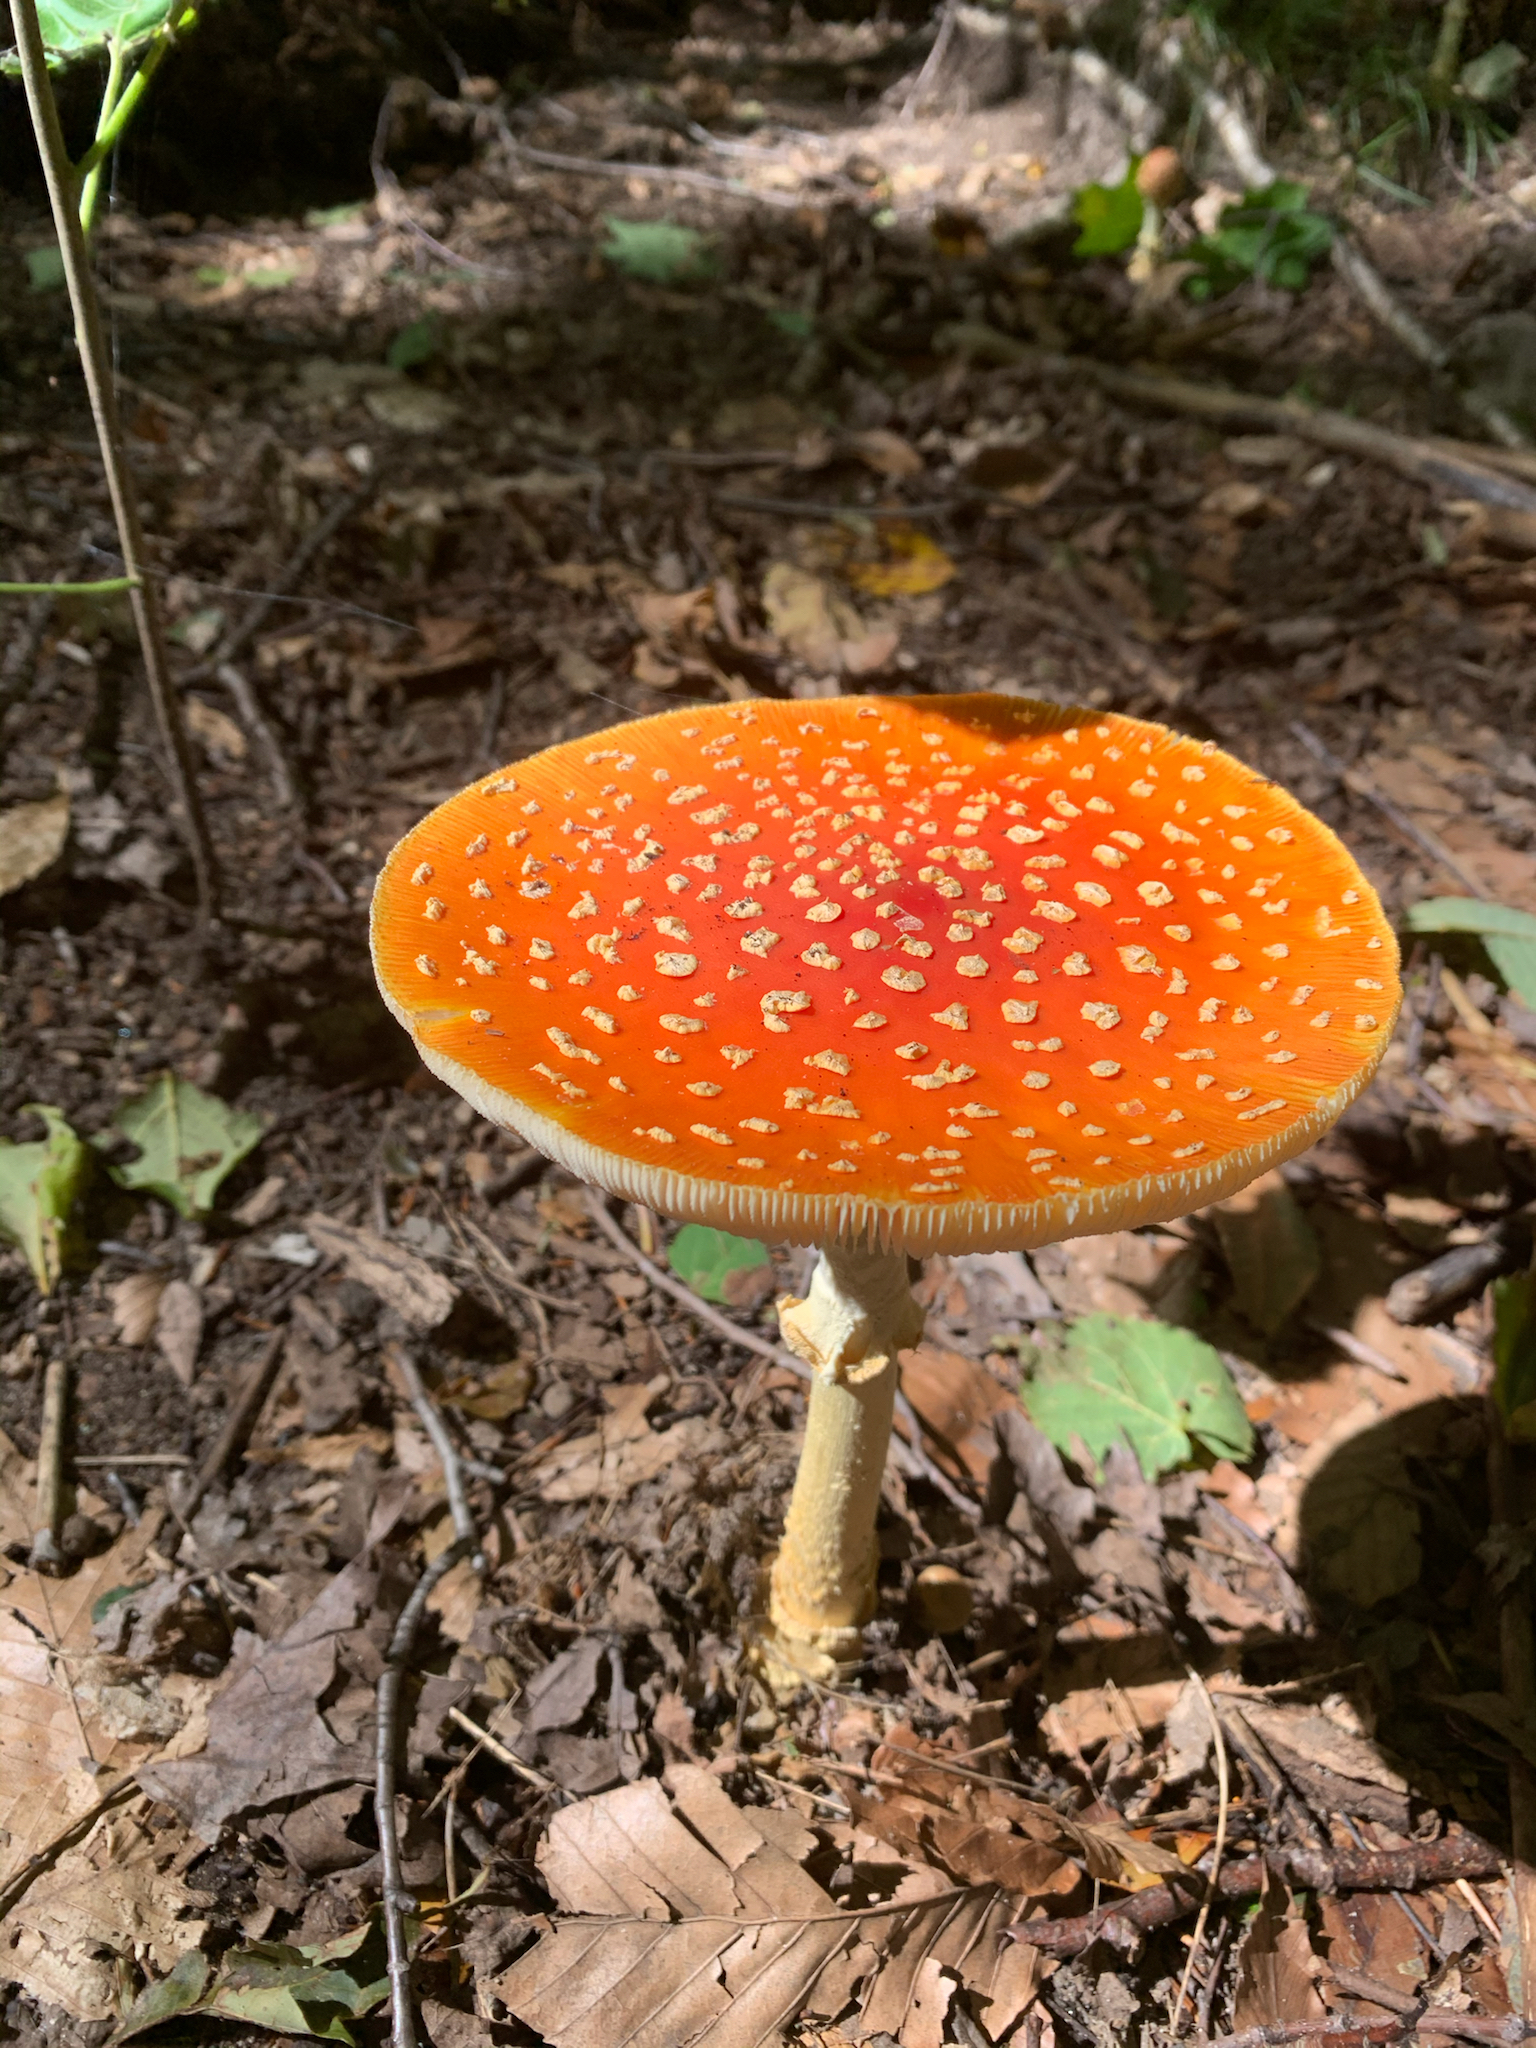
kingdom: Fungi
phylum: Basidiomycota
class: Agaricomycetes
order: Agaricales
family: Amanitaceae
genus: Amanita
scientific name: Amanita muscaria
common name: Fly agaric
